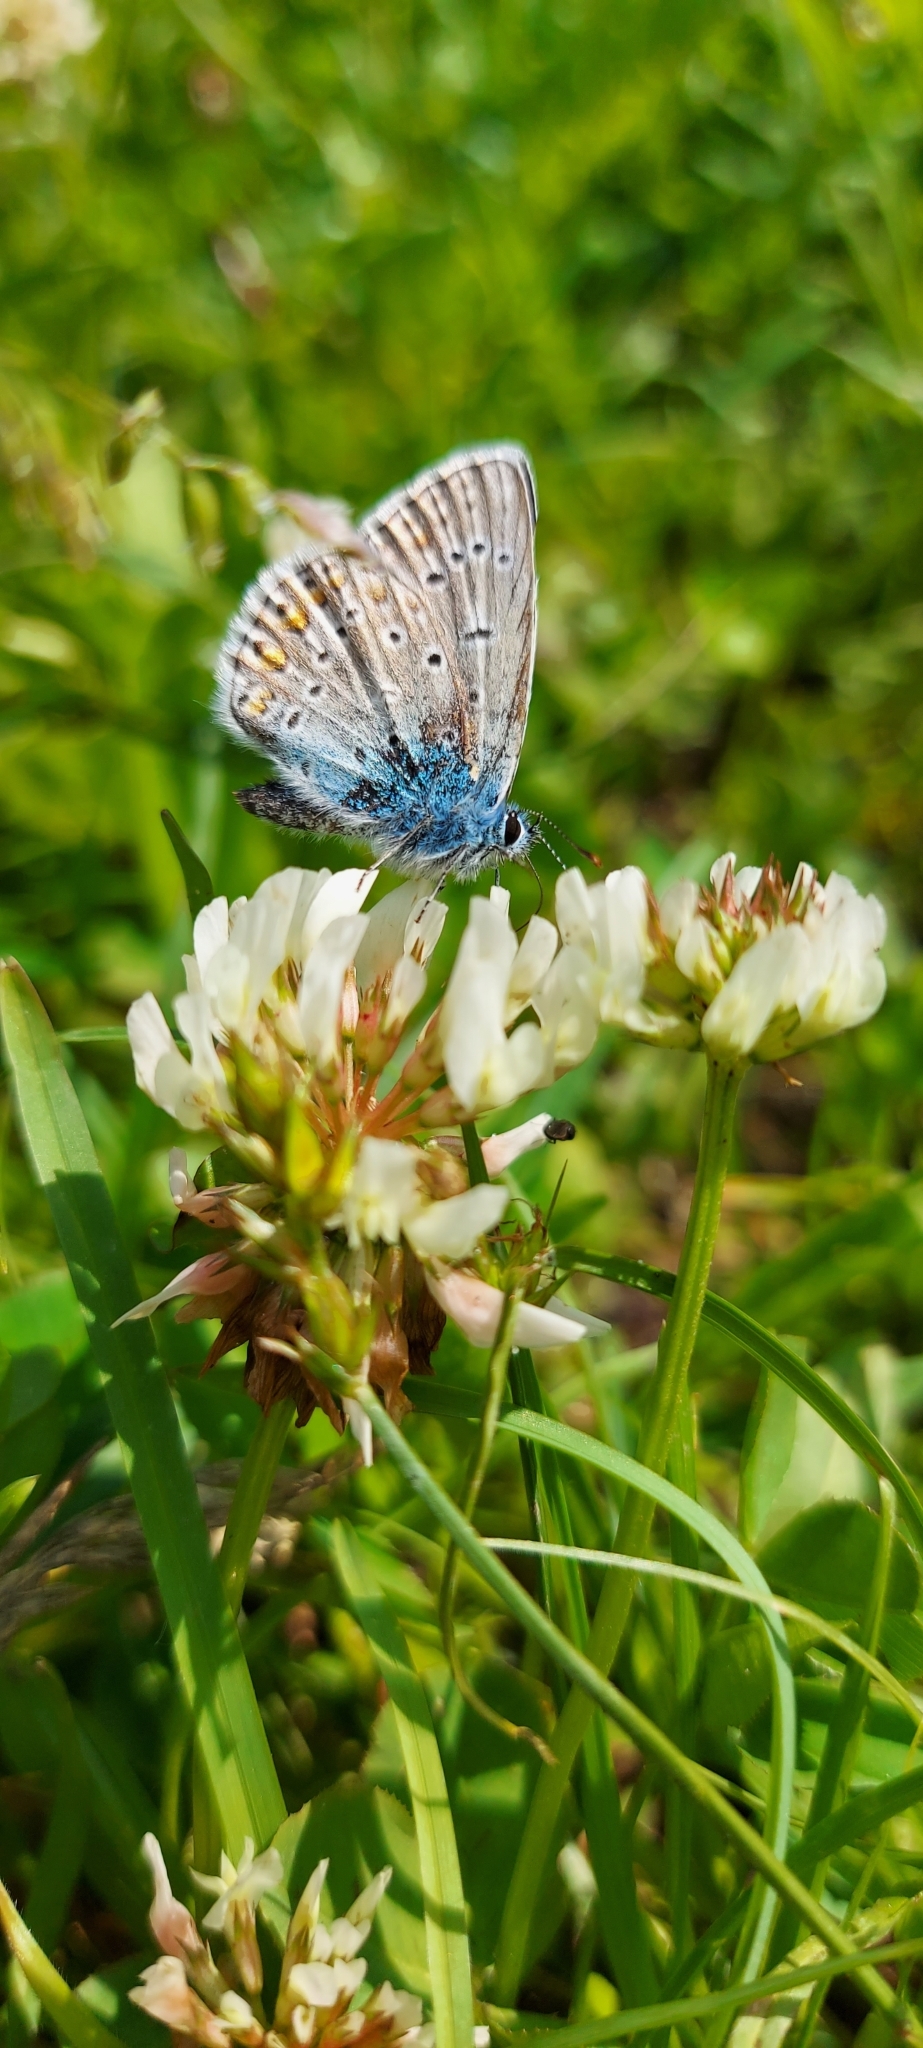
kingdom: Animalia
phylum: Arthropoda
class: Insecta
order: Lepidoptera
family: Lycaenidae
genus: Polyommatus
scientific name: Polyommatus icarus
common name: Common blue
